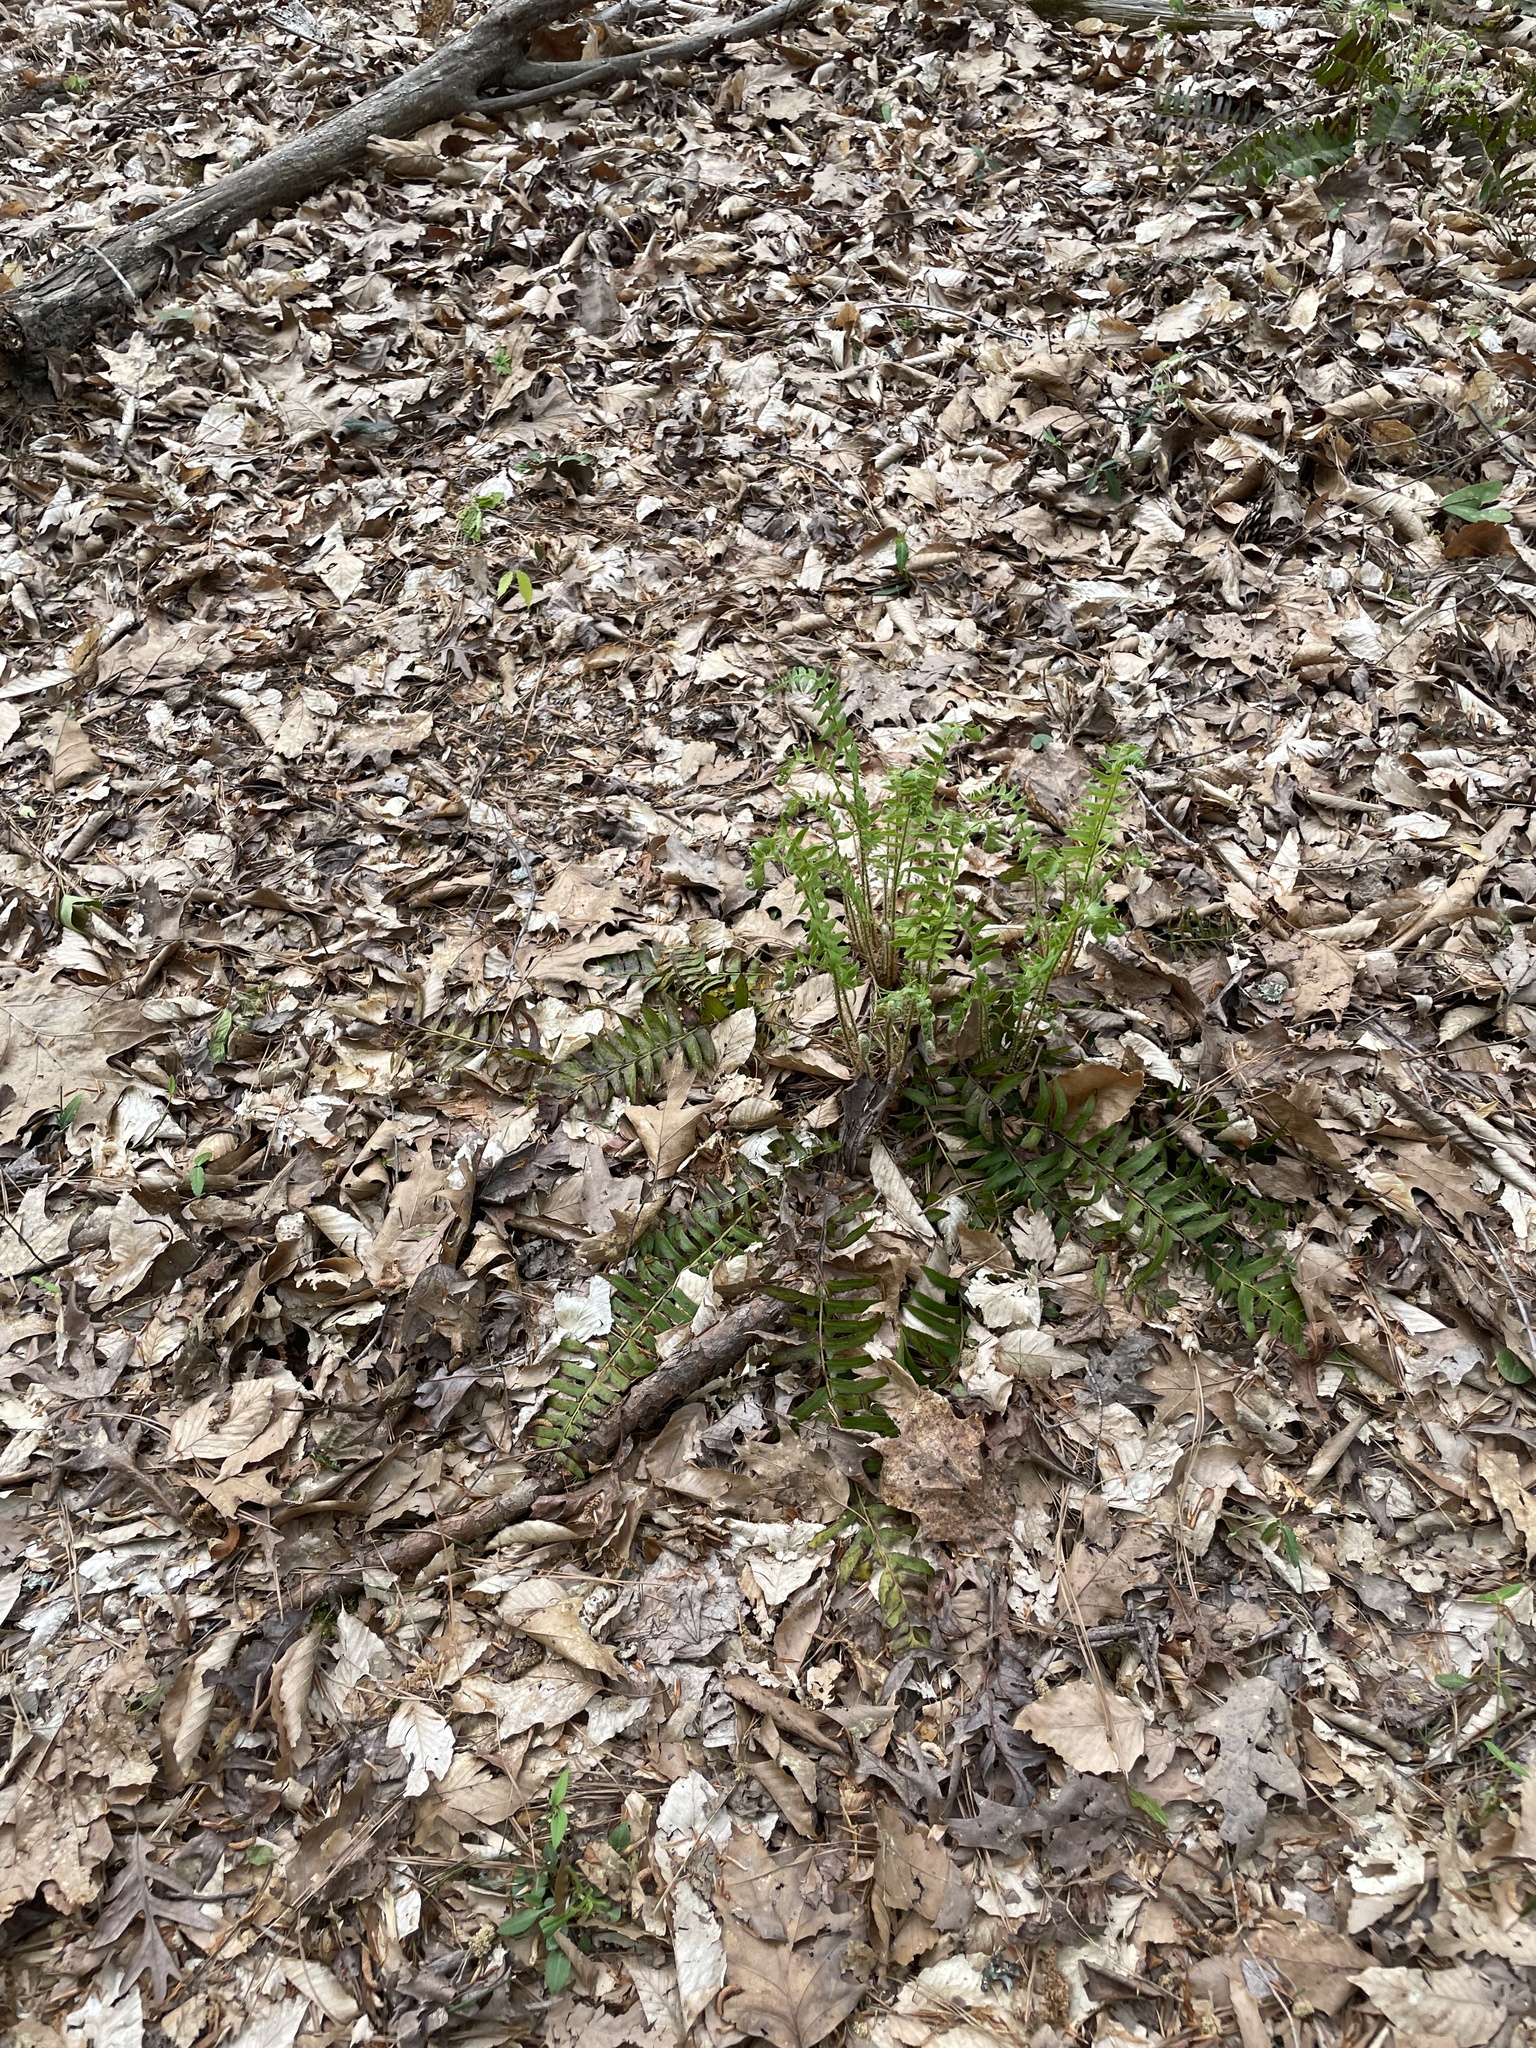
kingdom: Plantae
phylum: Tracheophyta
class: Polypodiopsida
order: Polypodiales
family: Dryopteridaceae
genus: Polystichum
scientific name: Polystichum acrostichoides
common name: Christmas fern
